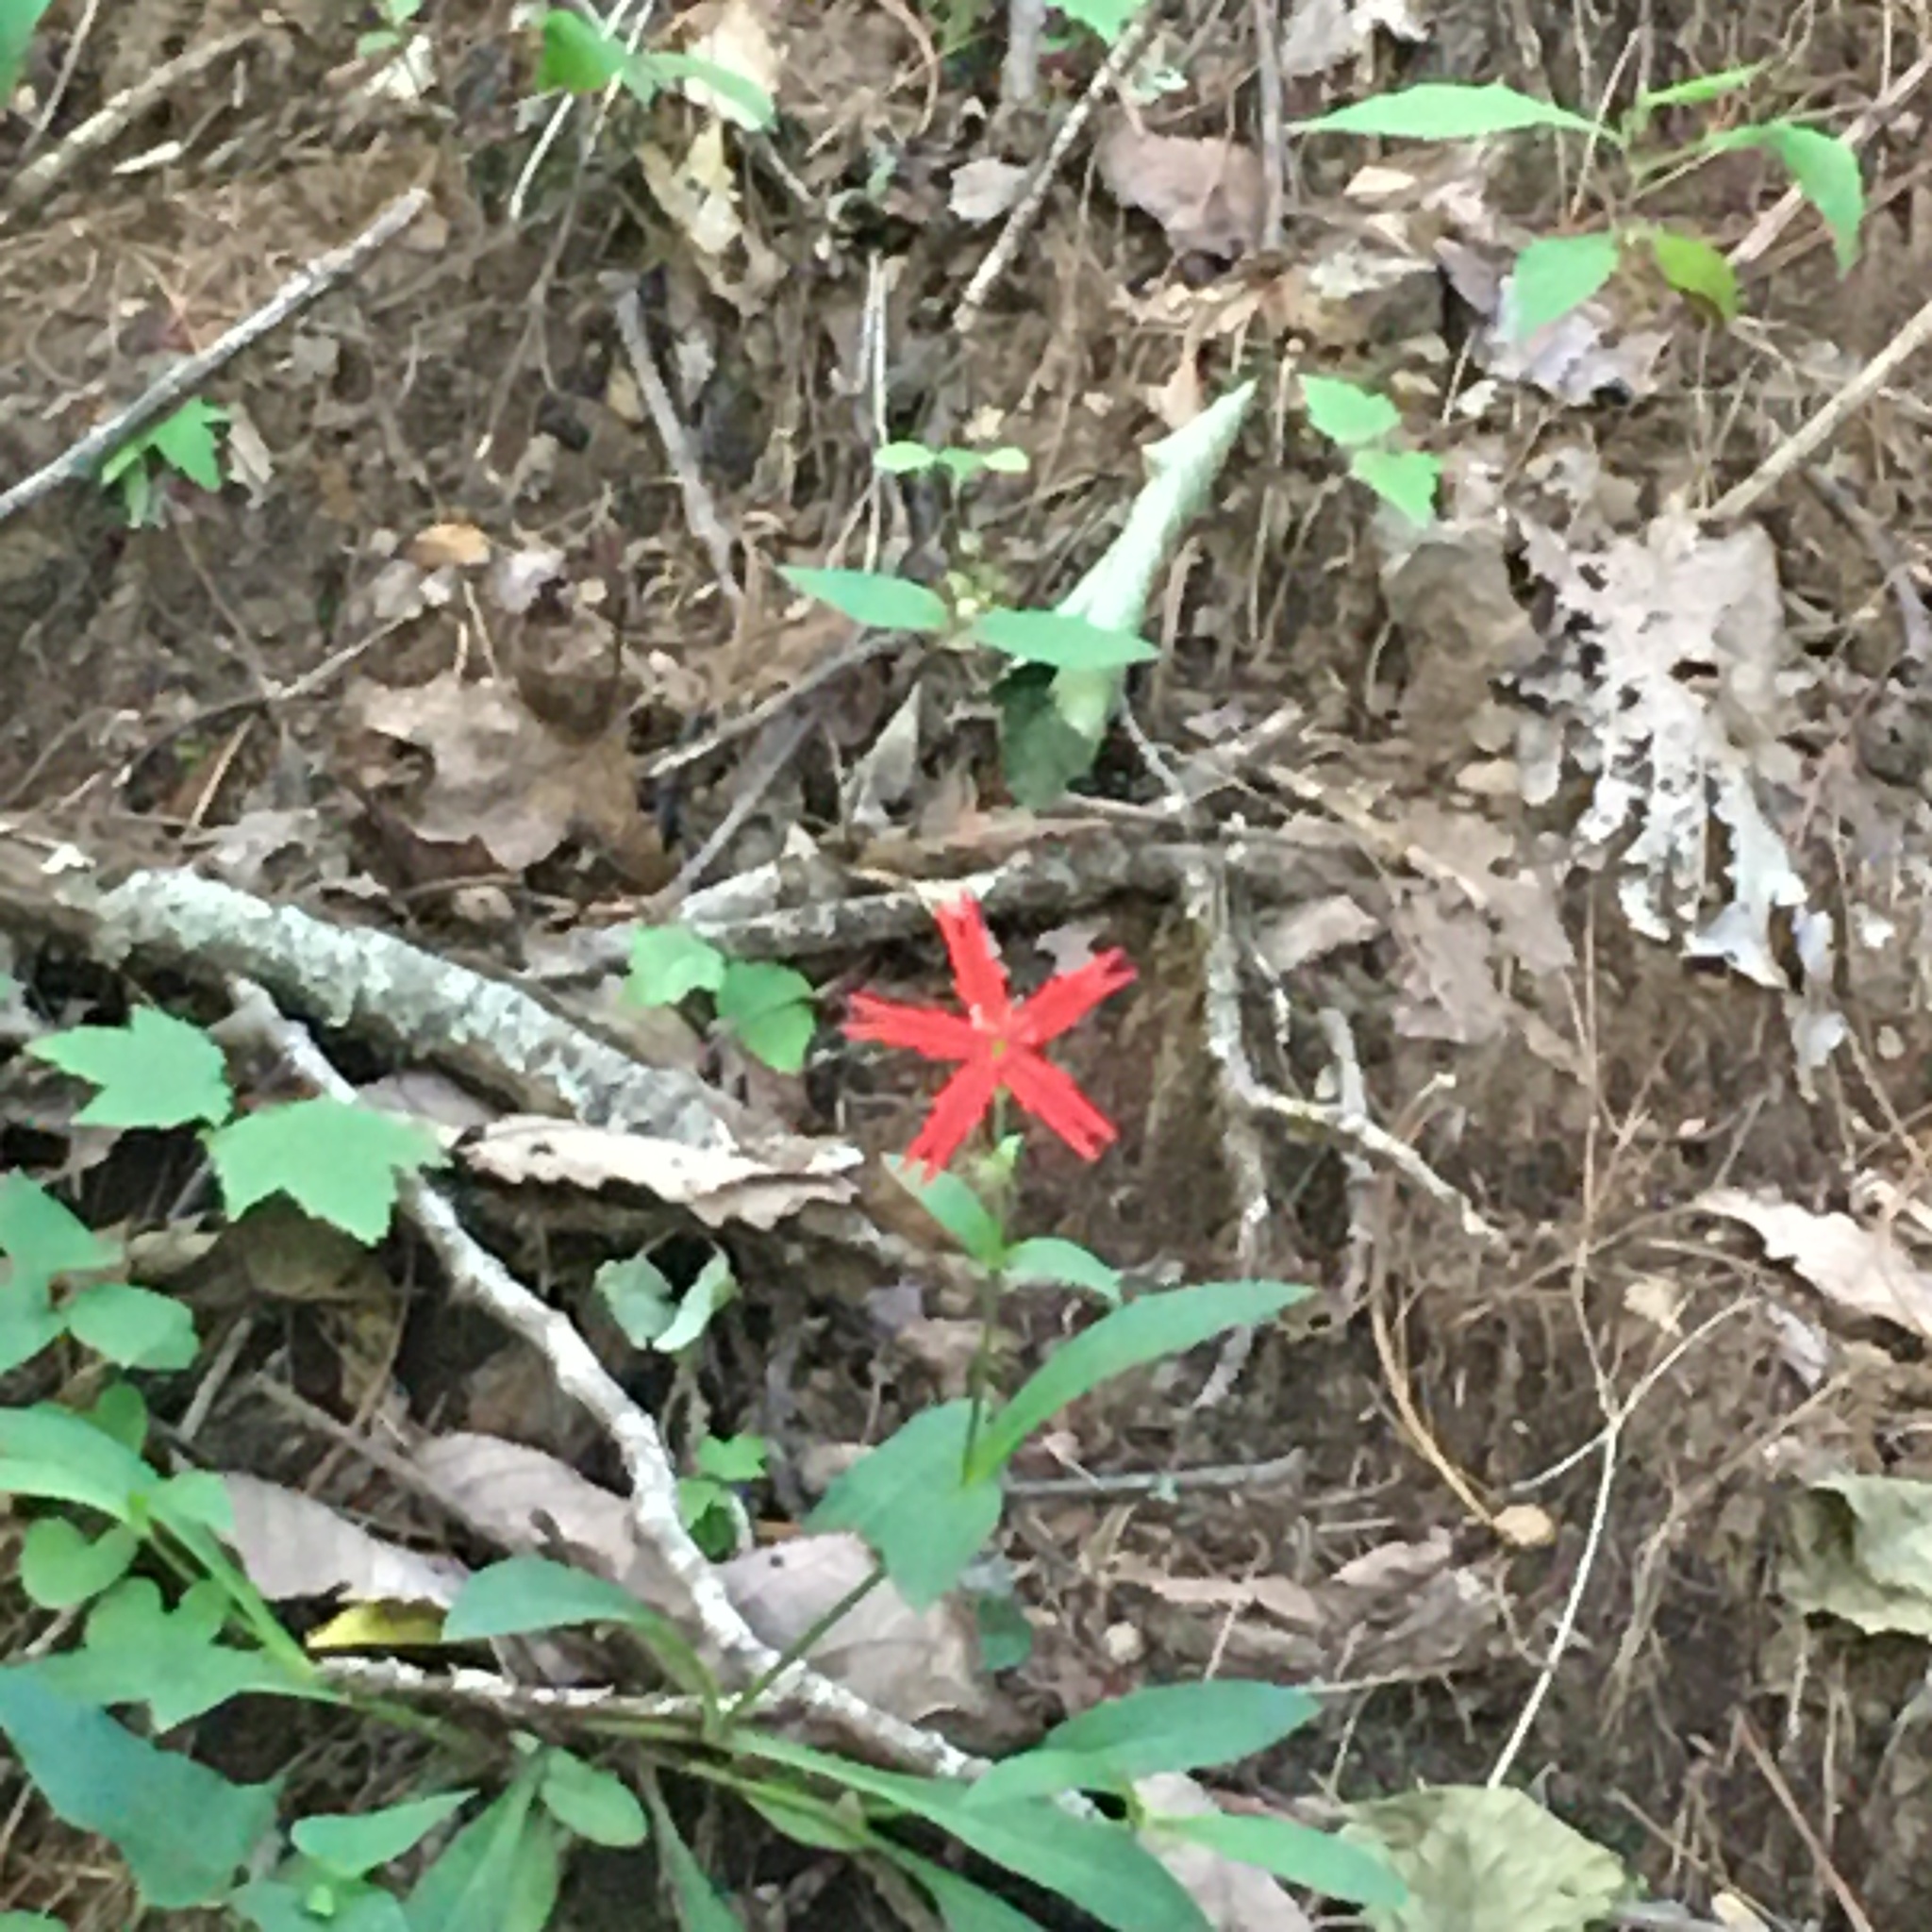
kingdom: Plantae
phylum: Tracheophyta
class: Magnoliopsida
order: Caryophyllales
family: Caryophyllaceae
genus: Silene
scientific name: Silene virginica
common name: Fire-pink
